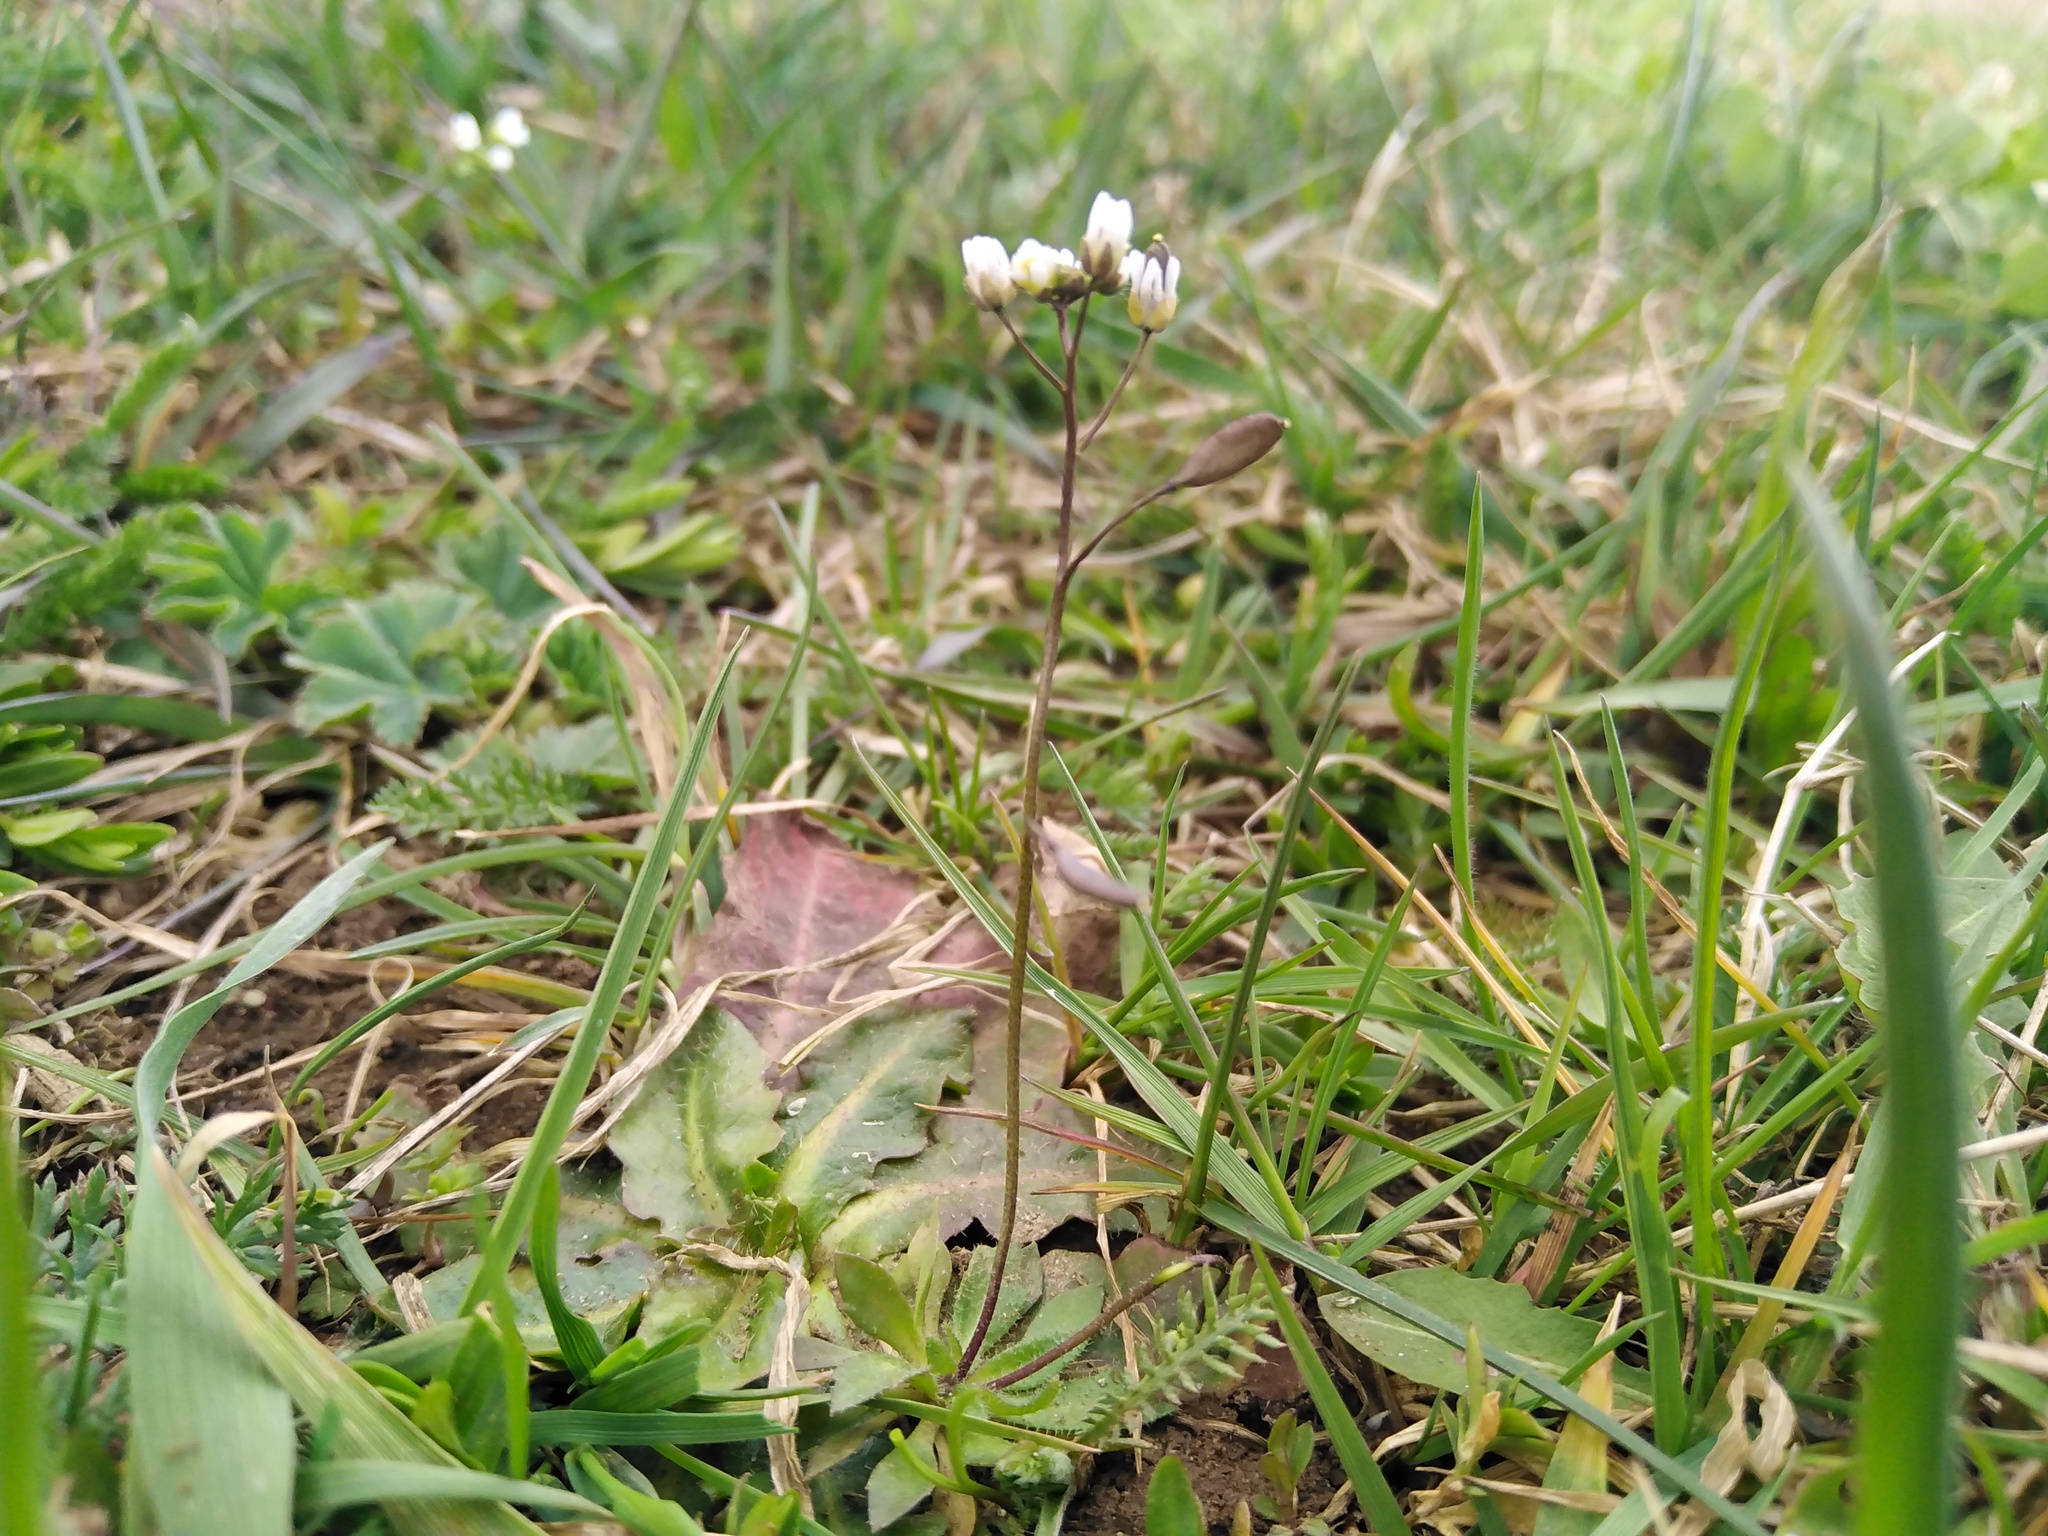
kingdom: Plantae
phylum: Tracheophyta
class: Magnoliopsida
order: Brassicales
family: Brassicaceae
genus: Draba
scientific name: Draba verna
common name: Spring draba
